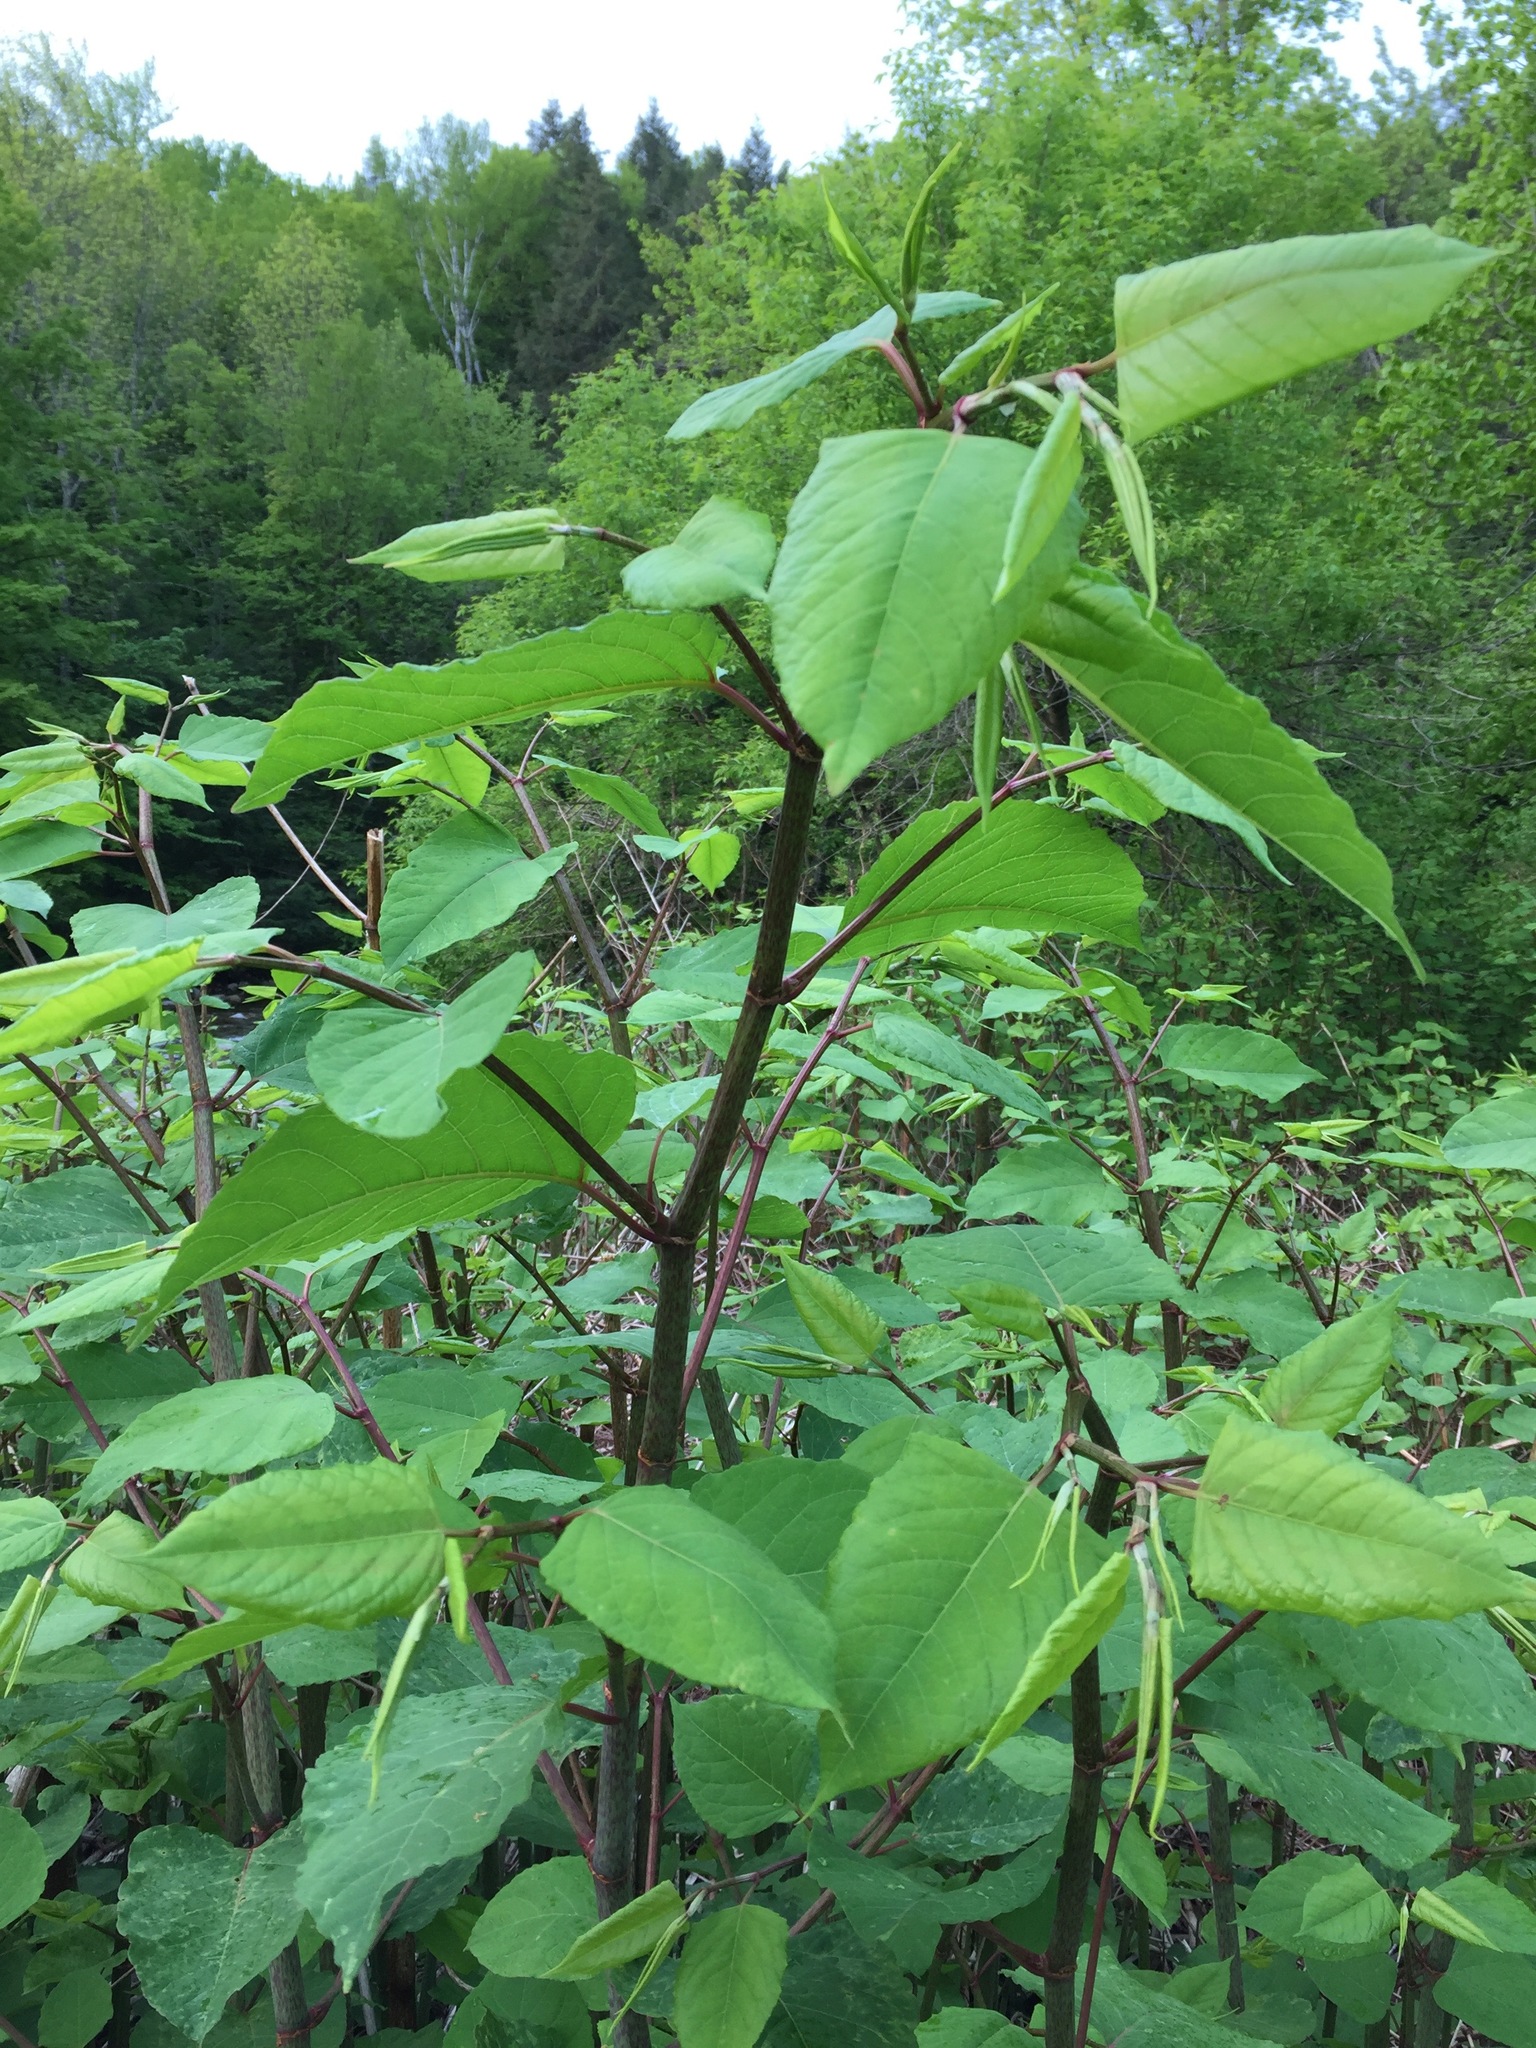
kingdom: Plantae
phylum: Tracheophyta
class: Magnoliopsida
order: Caryophyllales
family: Polygonaceae
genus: Reynoutria
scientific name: Reynoutria japonica
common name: Japanese knotweed
